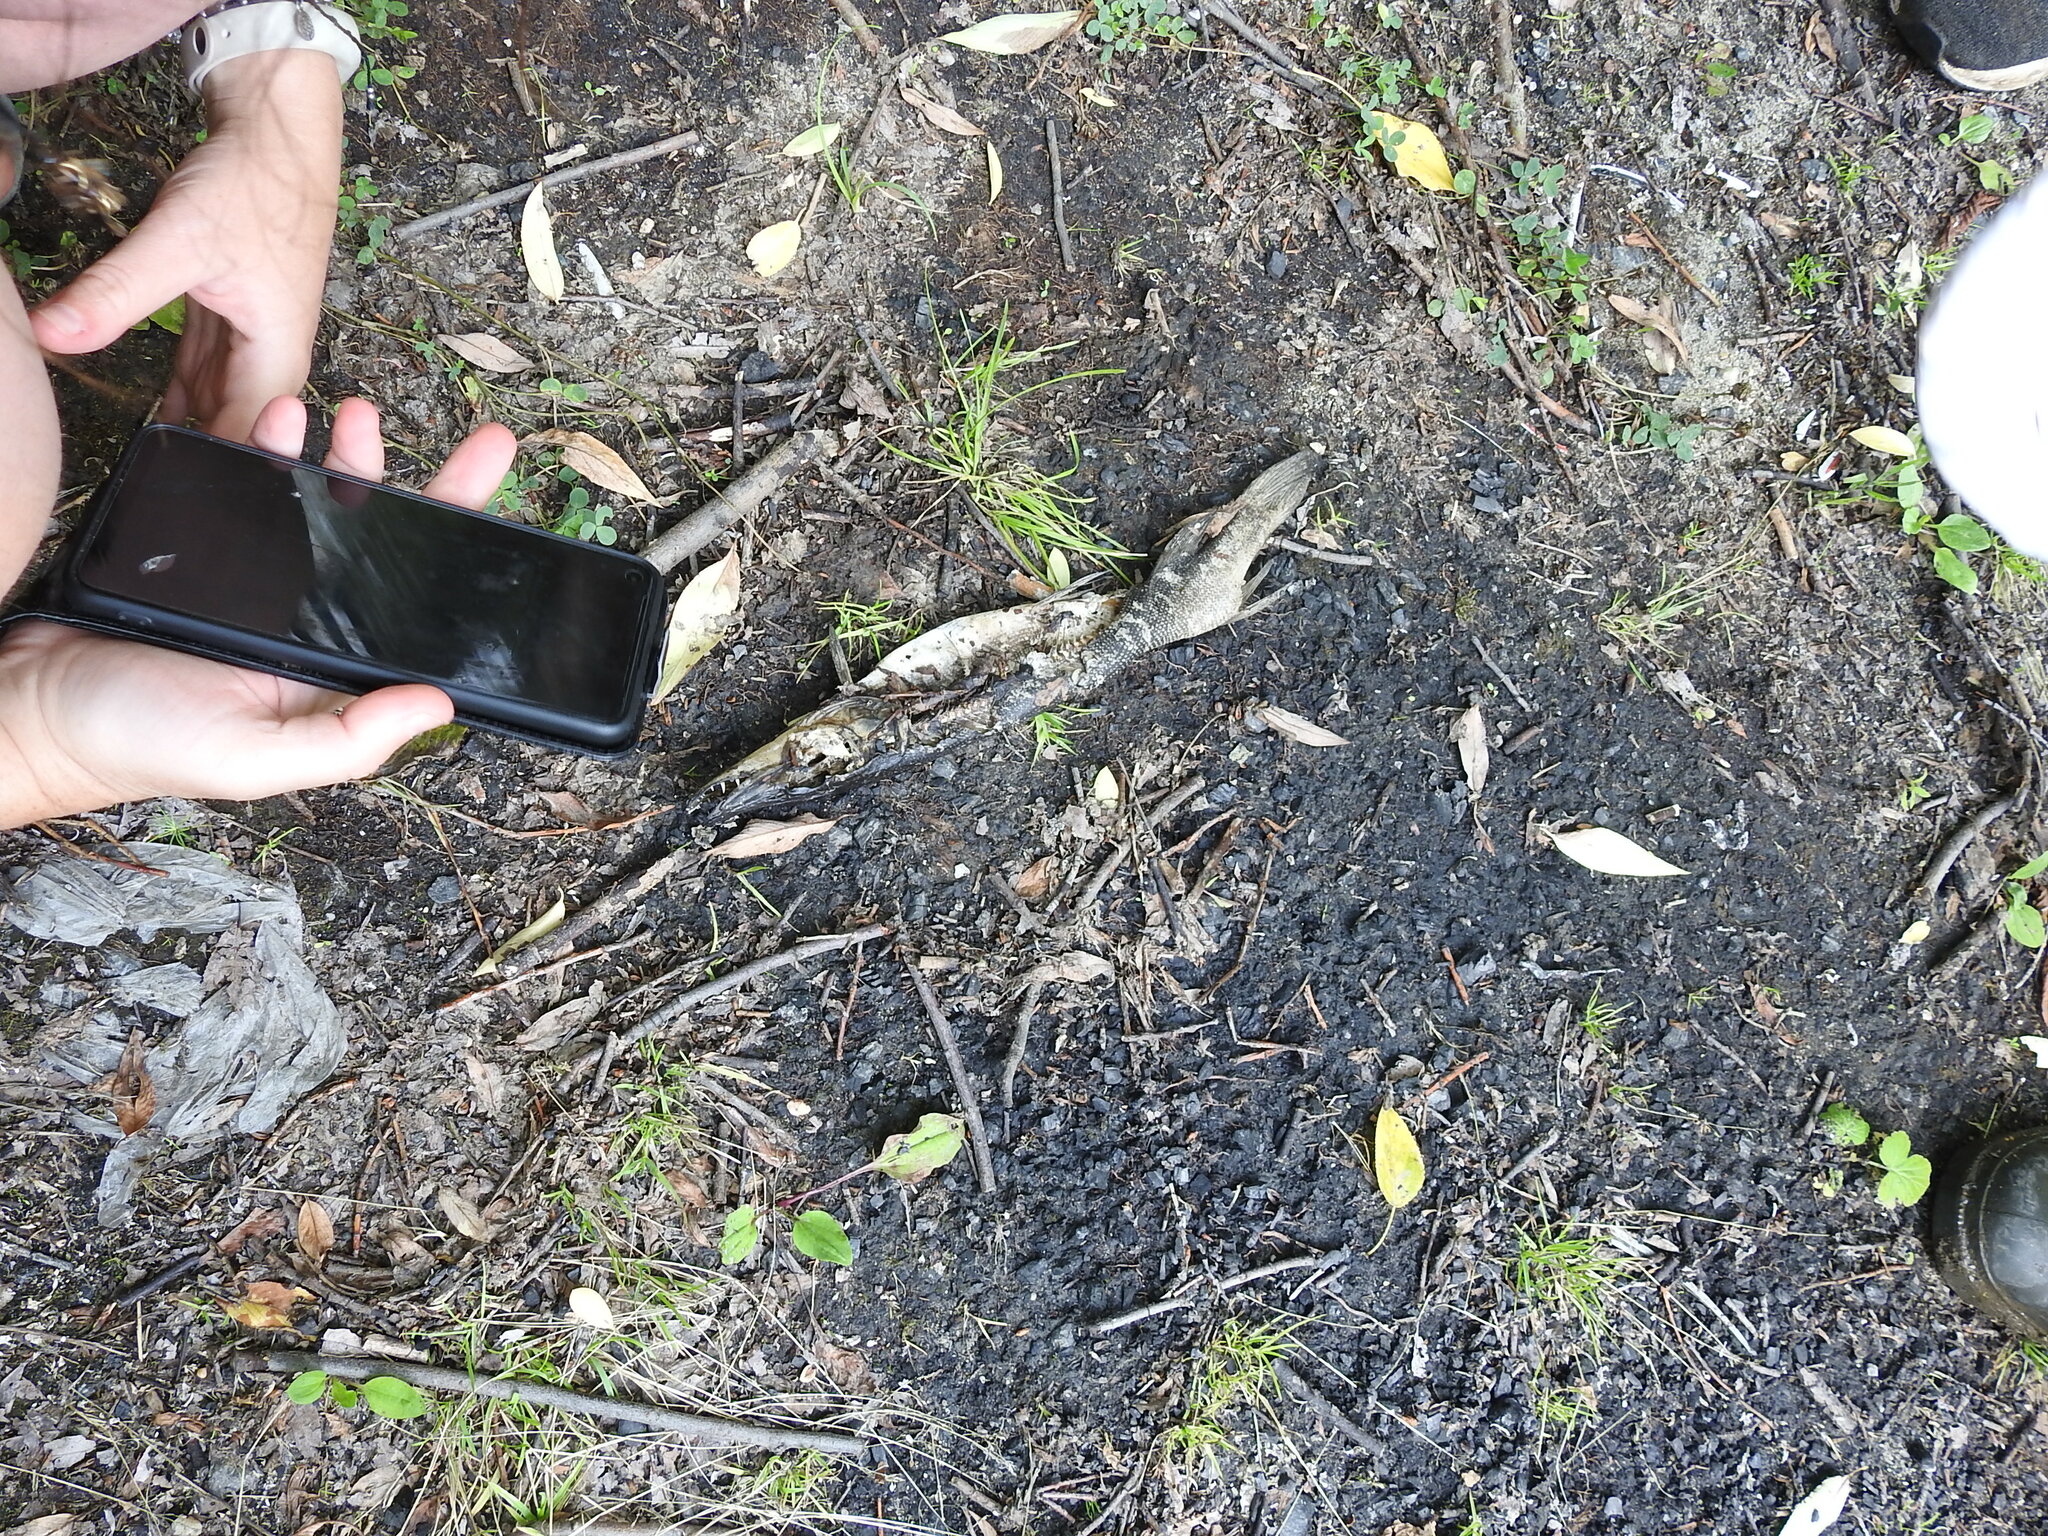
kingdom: Animalia
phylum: Chordata
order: Esociformes
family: Esocidae
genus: Esox
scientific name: Esox lucius
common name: Northern pike
